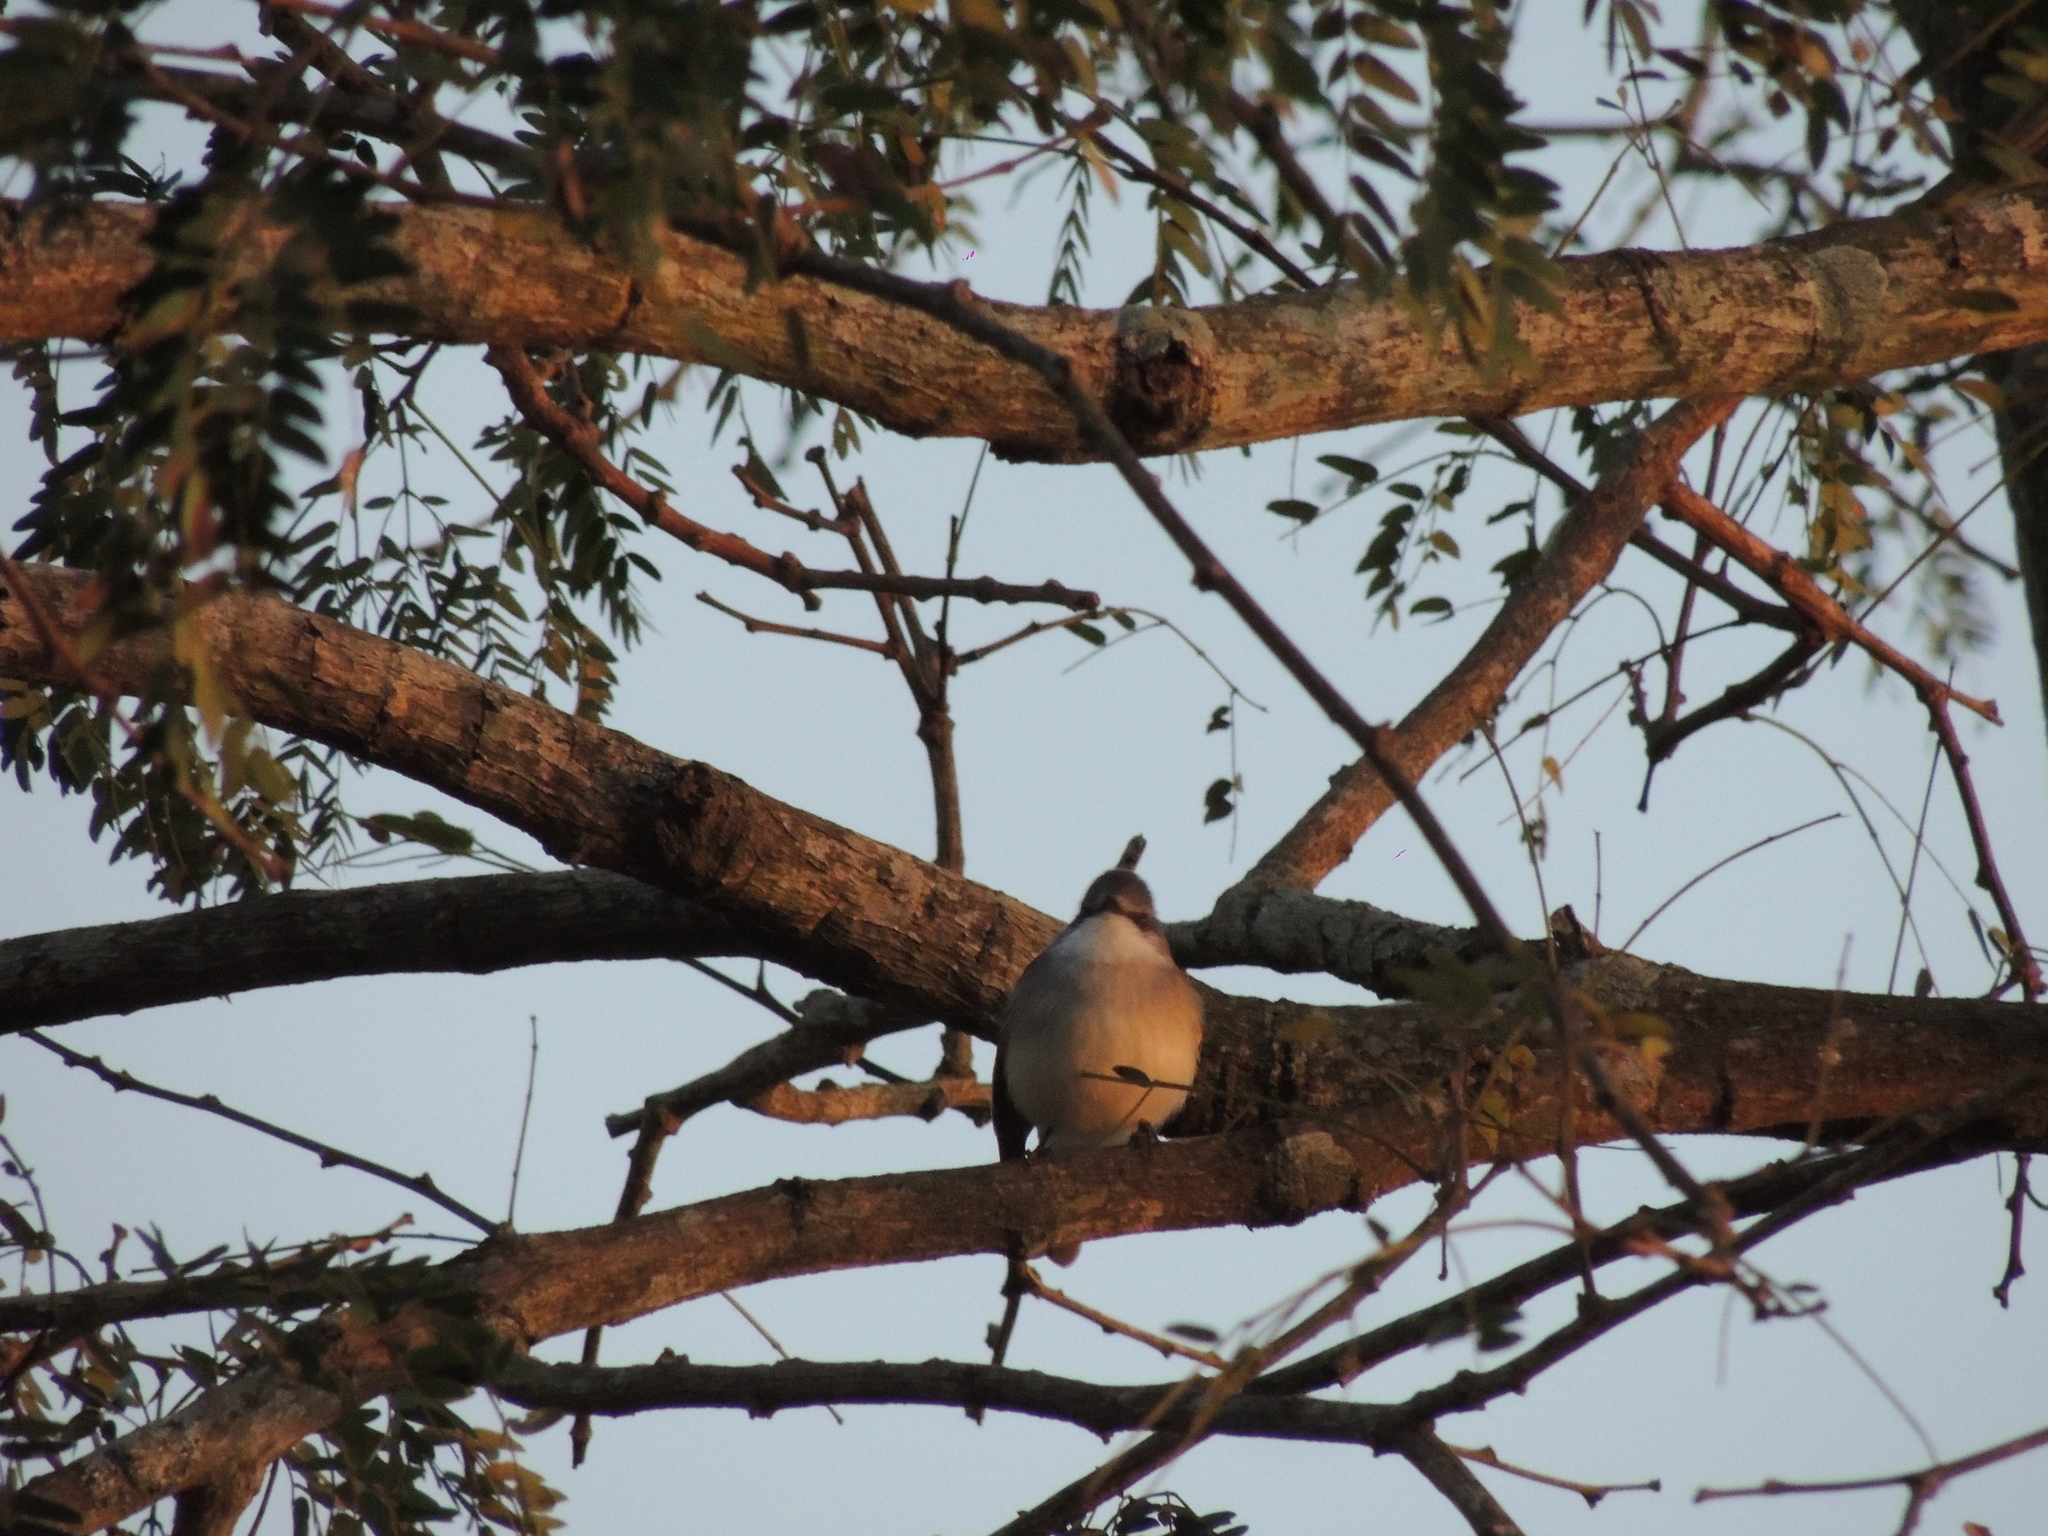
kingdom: Animalia
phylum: Chordata
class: Aves
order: Passeriformes
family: Tyrannidae
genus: Suiriri
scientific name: Suiriri suiriri
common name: Suiriri flycatcher
